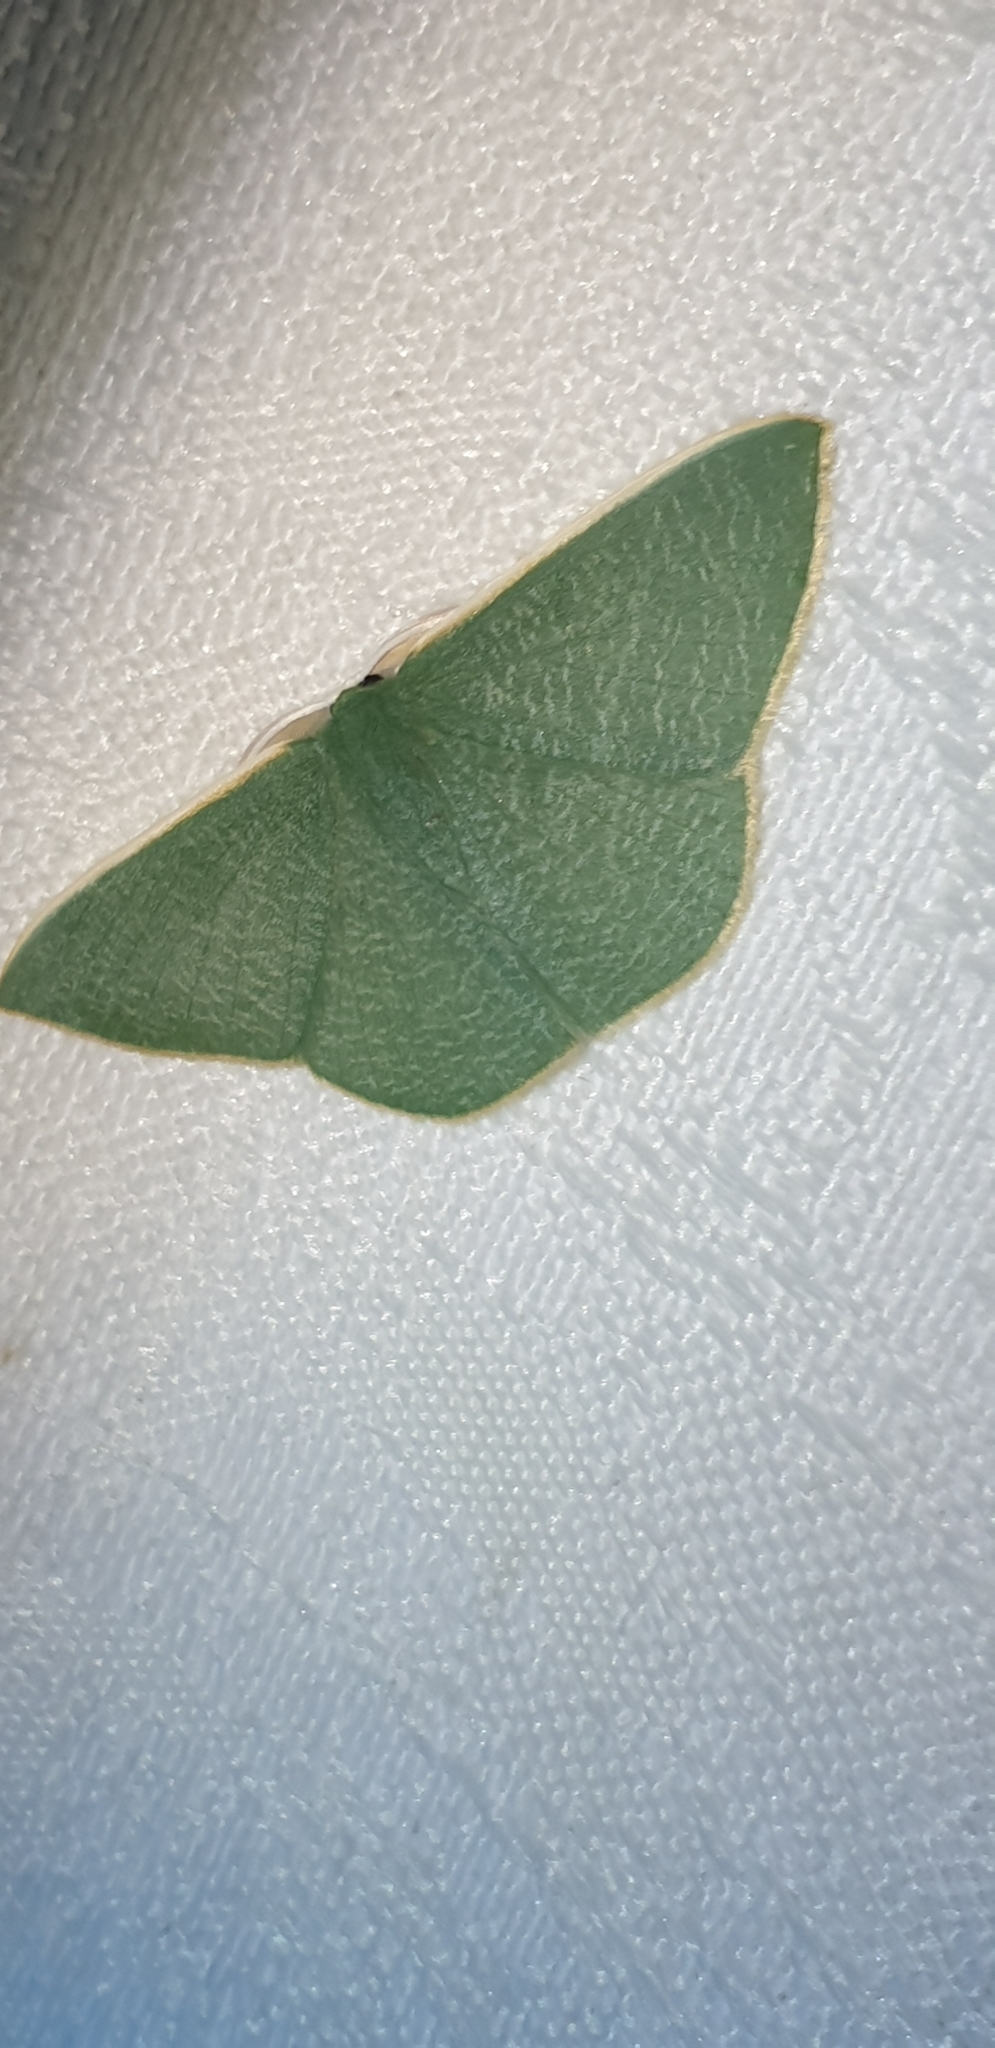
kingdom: Animalia
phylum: Arthropoda
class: Insecta
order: Lepidoptera
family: Geometridae
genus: Prasinocyma
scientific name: Prasinocyma albicosta
